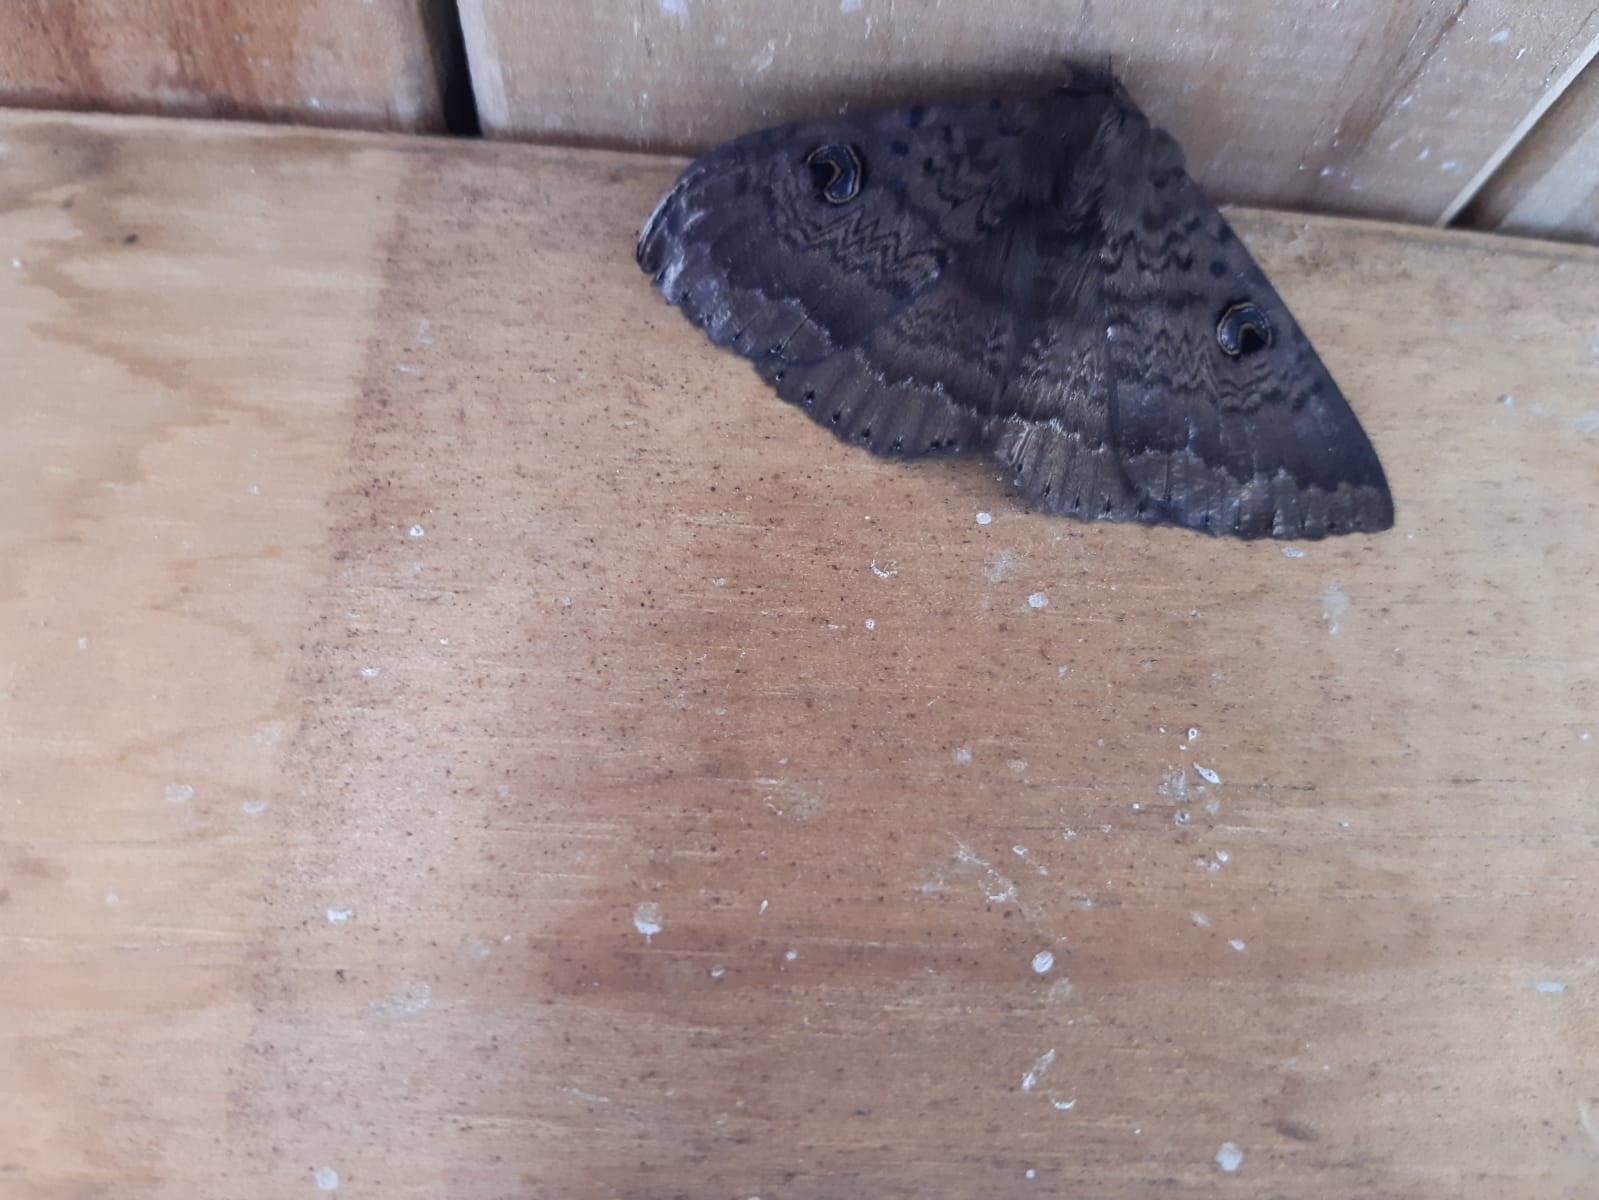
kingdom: Animalia
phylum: Arthropoda
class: Insecta
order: Lepidoptera
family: Erebidae
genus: Dasypodia
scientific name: Dasypodia cymatodes
